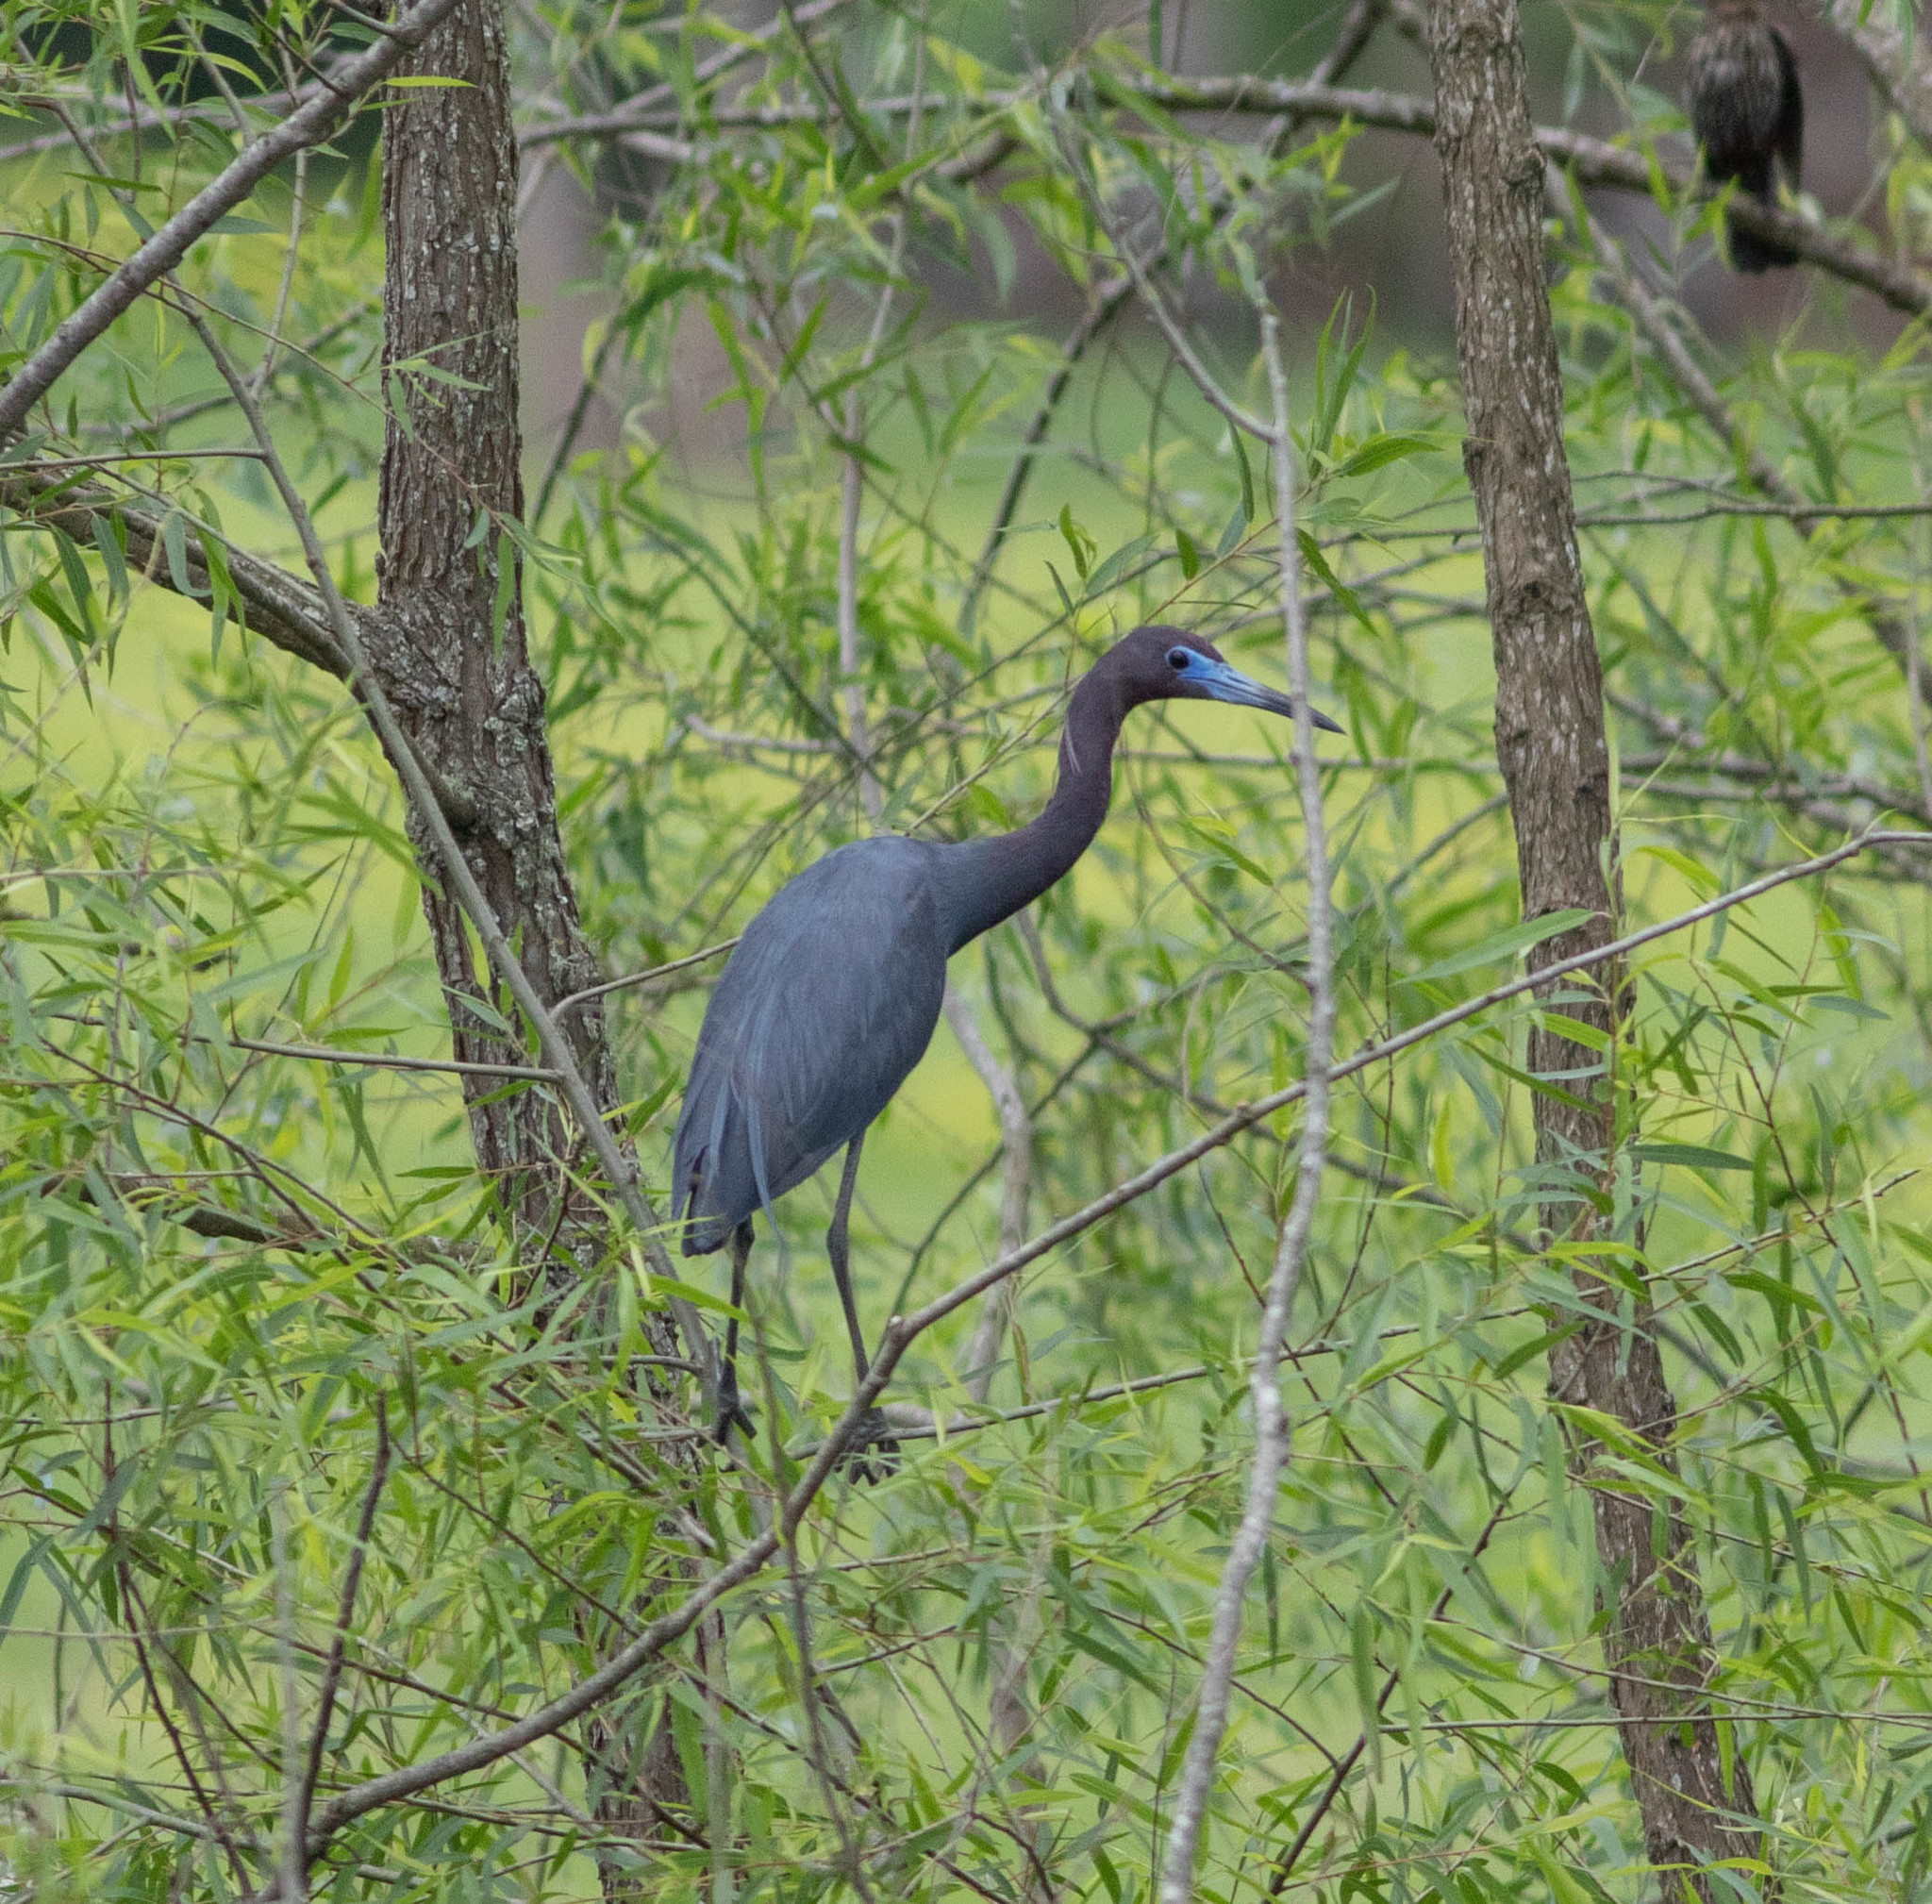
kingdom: Animalia
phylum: Chordata
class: Aves
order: Pelecaniformes
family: Ardeidae
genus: Egretta
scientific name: Egretta caerulea
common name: Little blue heron
